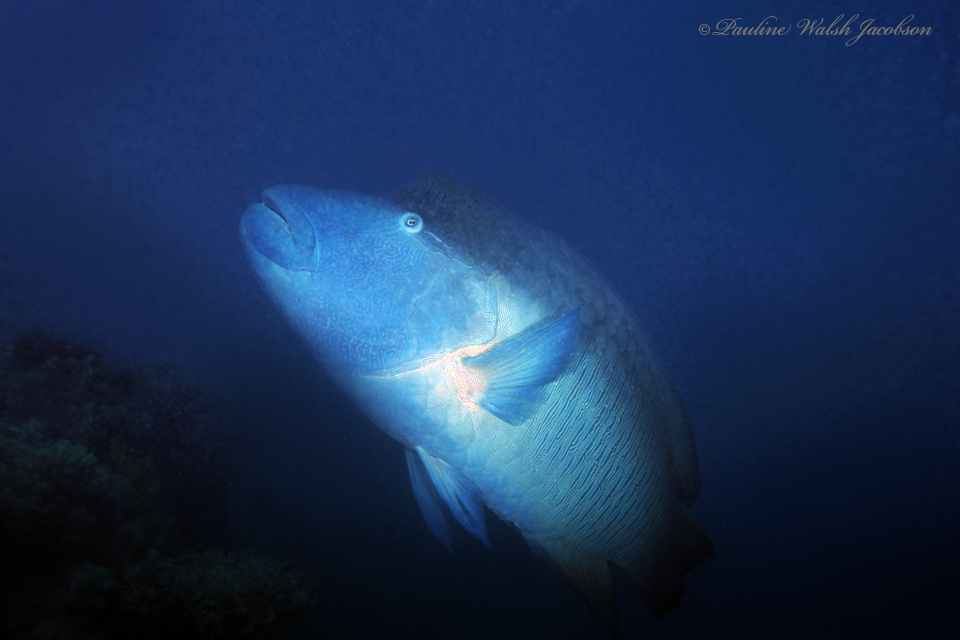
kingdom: Animalia
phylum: Chordata
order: Perciformes
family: Labridae
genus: Cheilinus
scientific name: Cheilinus undulatus
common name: Humphead wrasse
